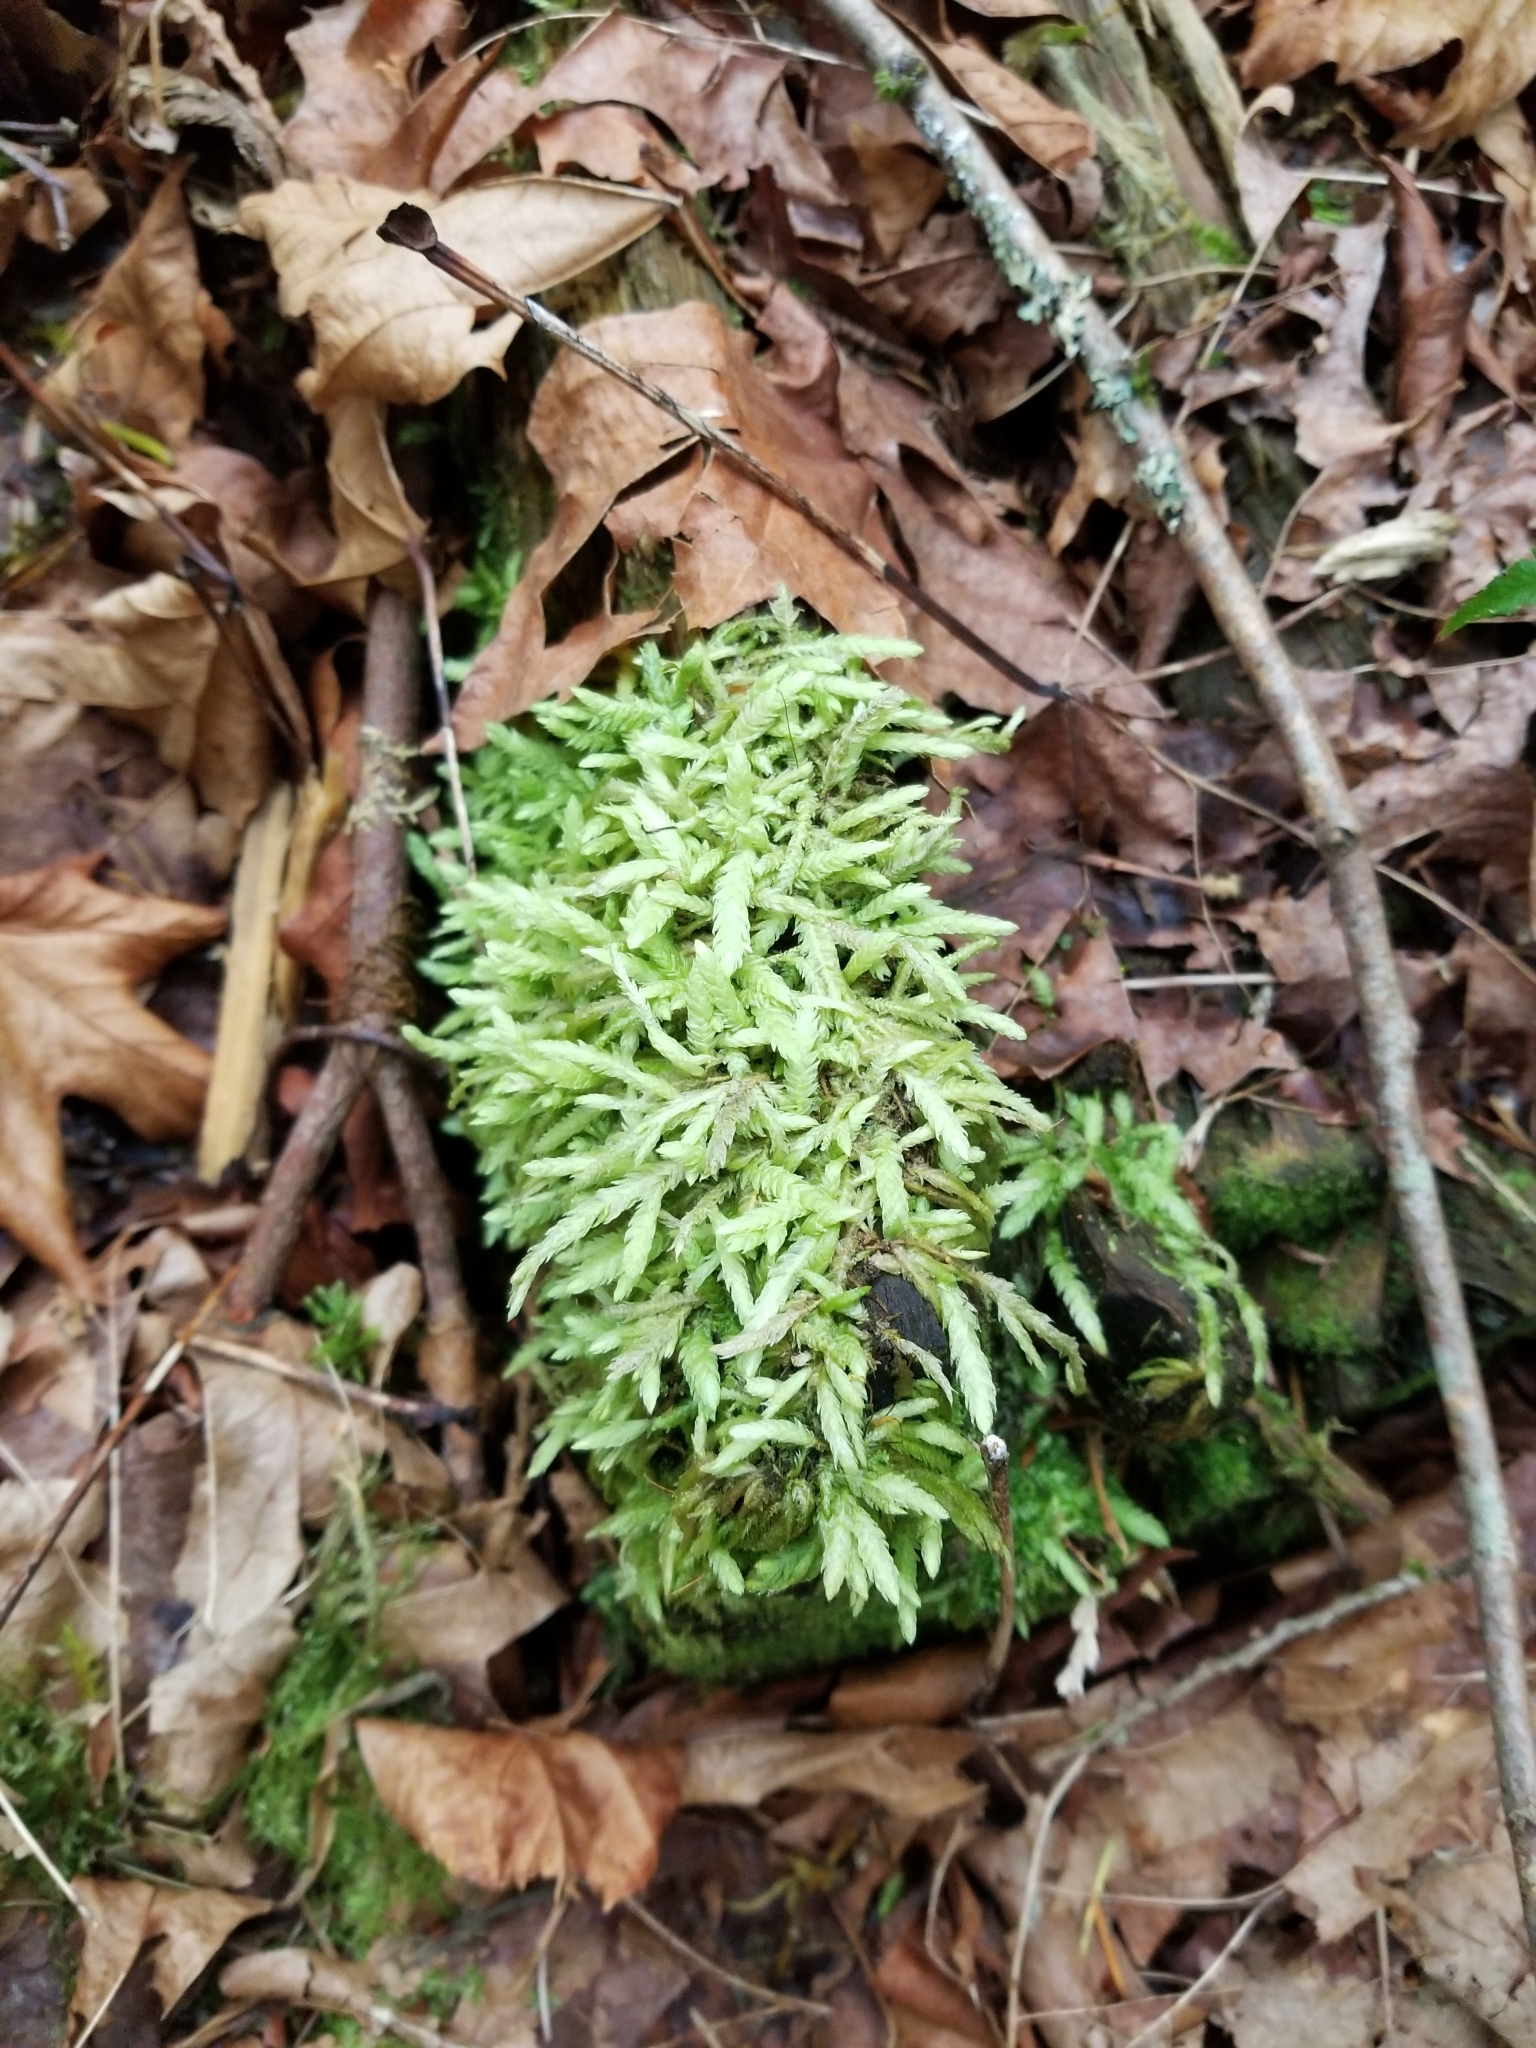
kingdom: Plantae
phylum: Bryophyta
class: Bryopsida
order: Hypnales
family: Plagiotheciaceae
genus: Plagiothecium
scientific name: Plagiothecium undulatum
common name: Waved silk-moss
